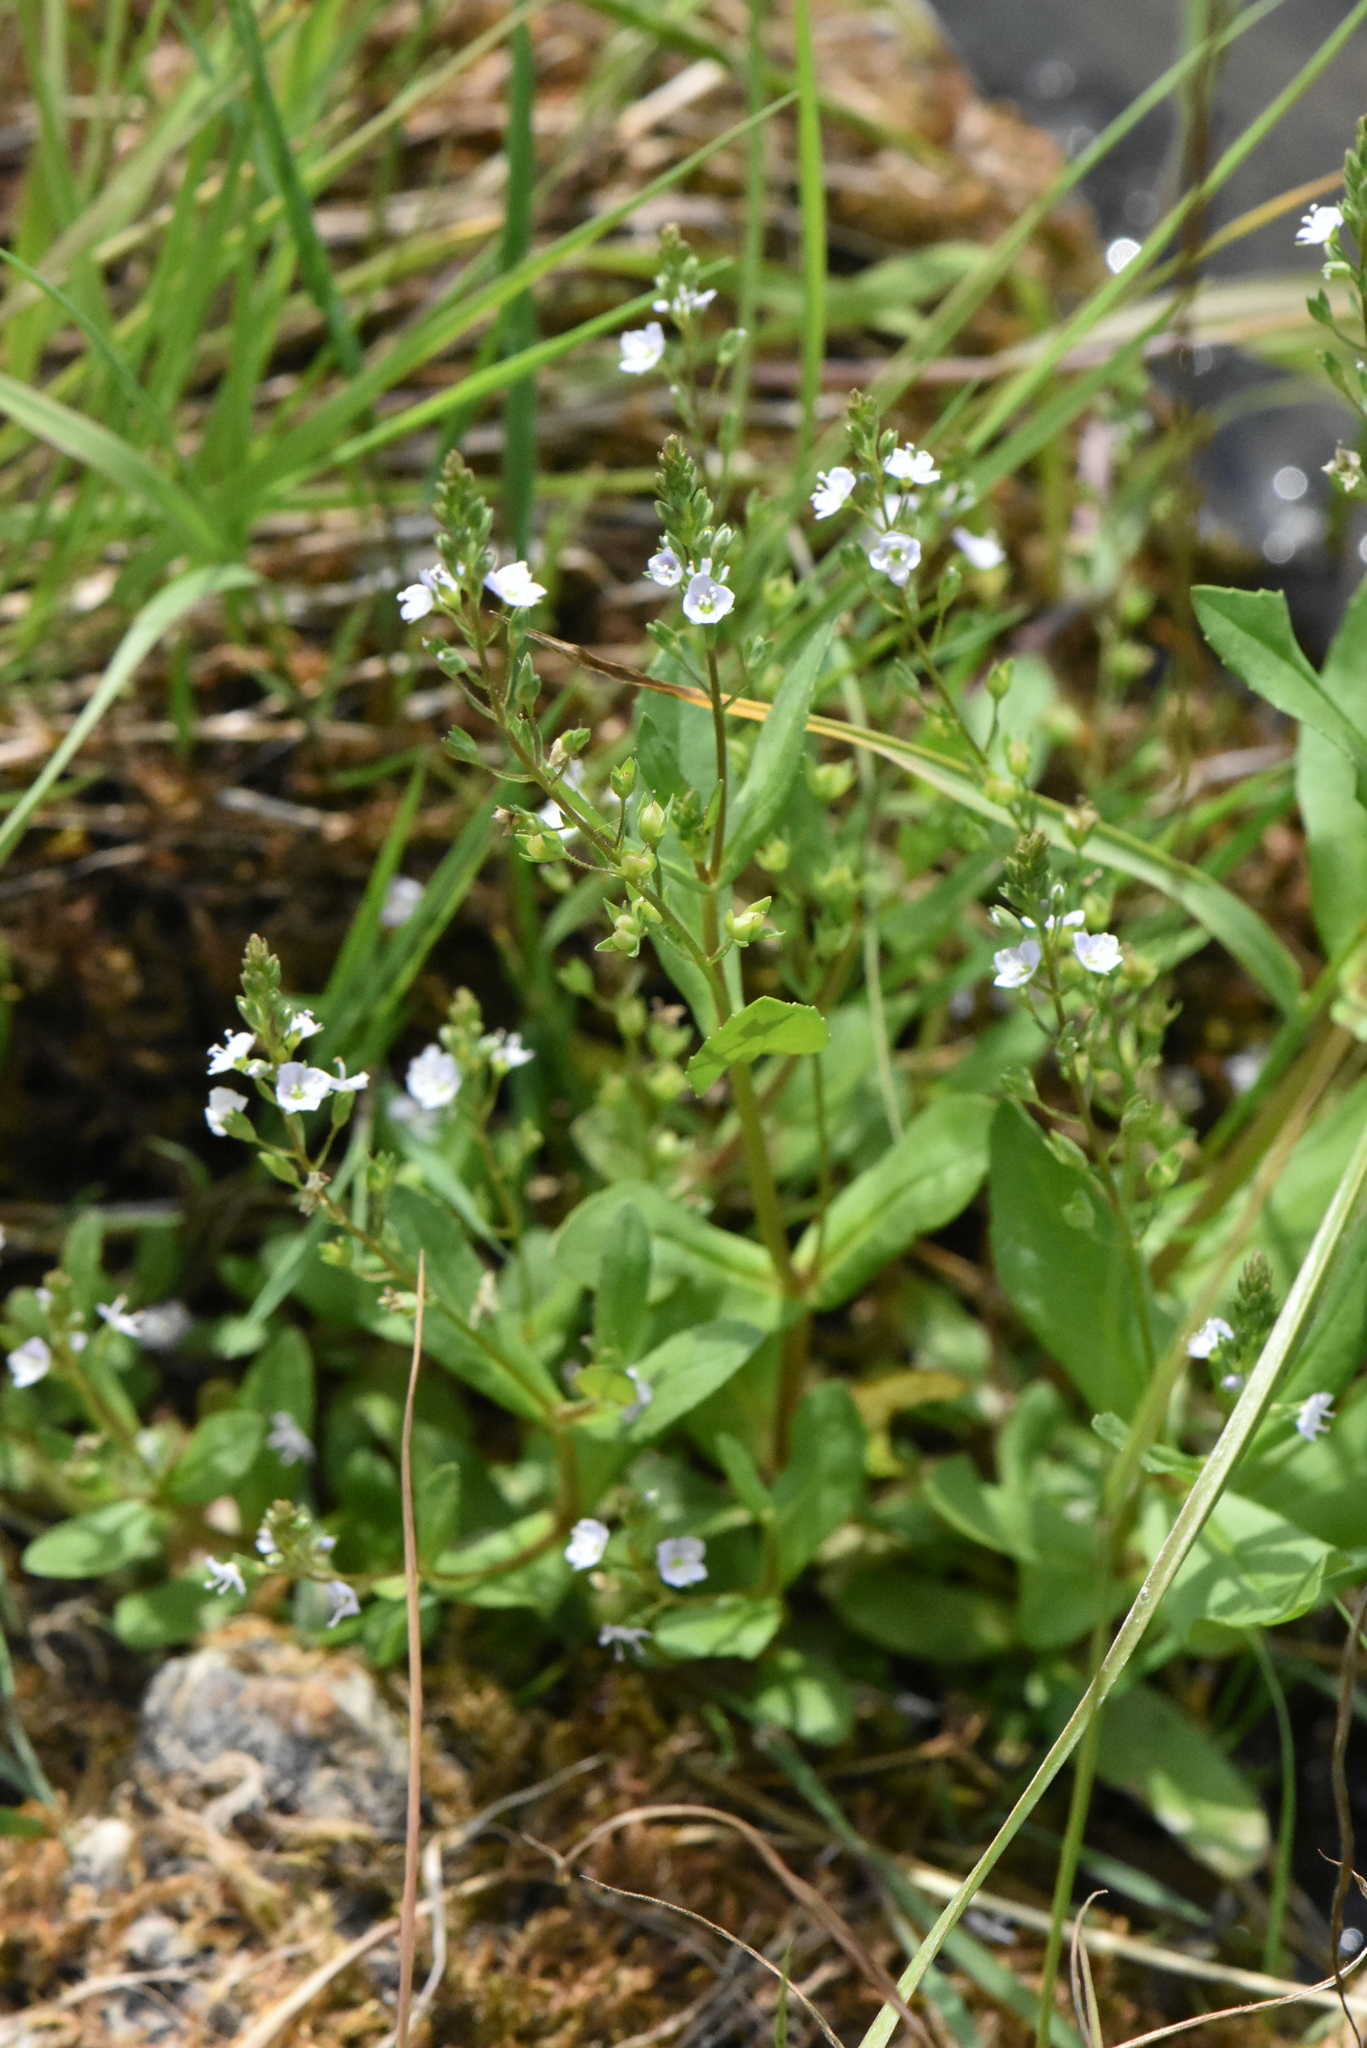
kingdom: Plantae
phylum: Tracheophyta
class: Magnoliopsida
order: Lamiales
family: Plantaginaceae
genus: Veronica
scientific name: Veronica anagallis-aquatica
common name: Water speedwell
